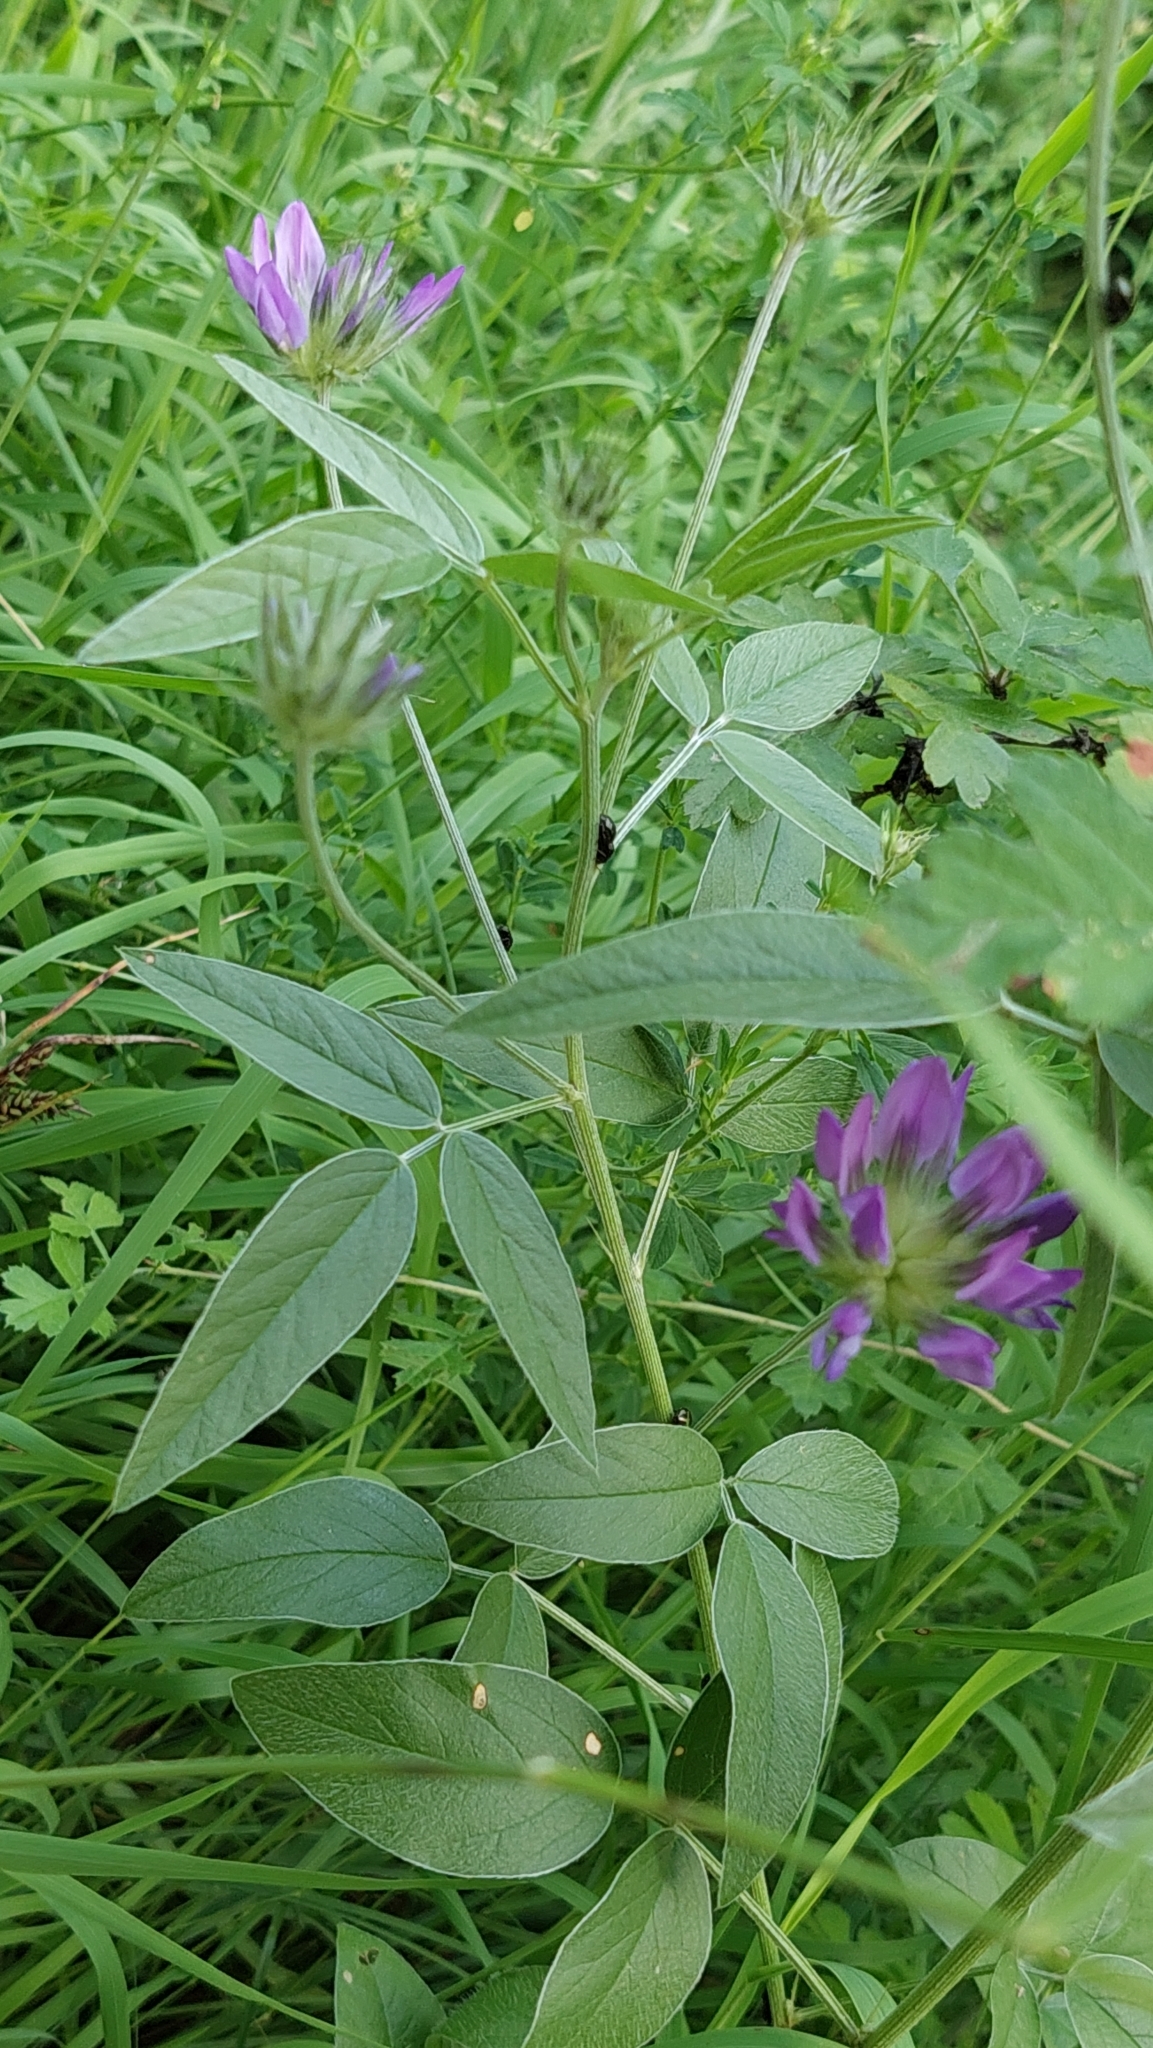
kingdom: Plantae
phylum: Tracheophyta
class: Magnoliopsida
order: Fabales
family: Fabaceae
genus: Bituminaria
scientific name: Bituminaria bituminosa
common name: Arabian pea
